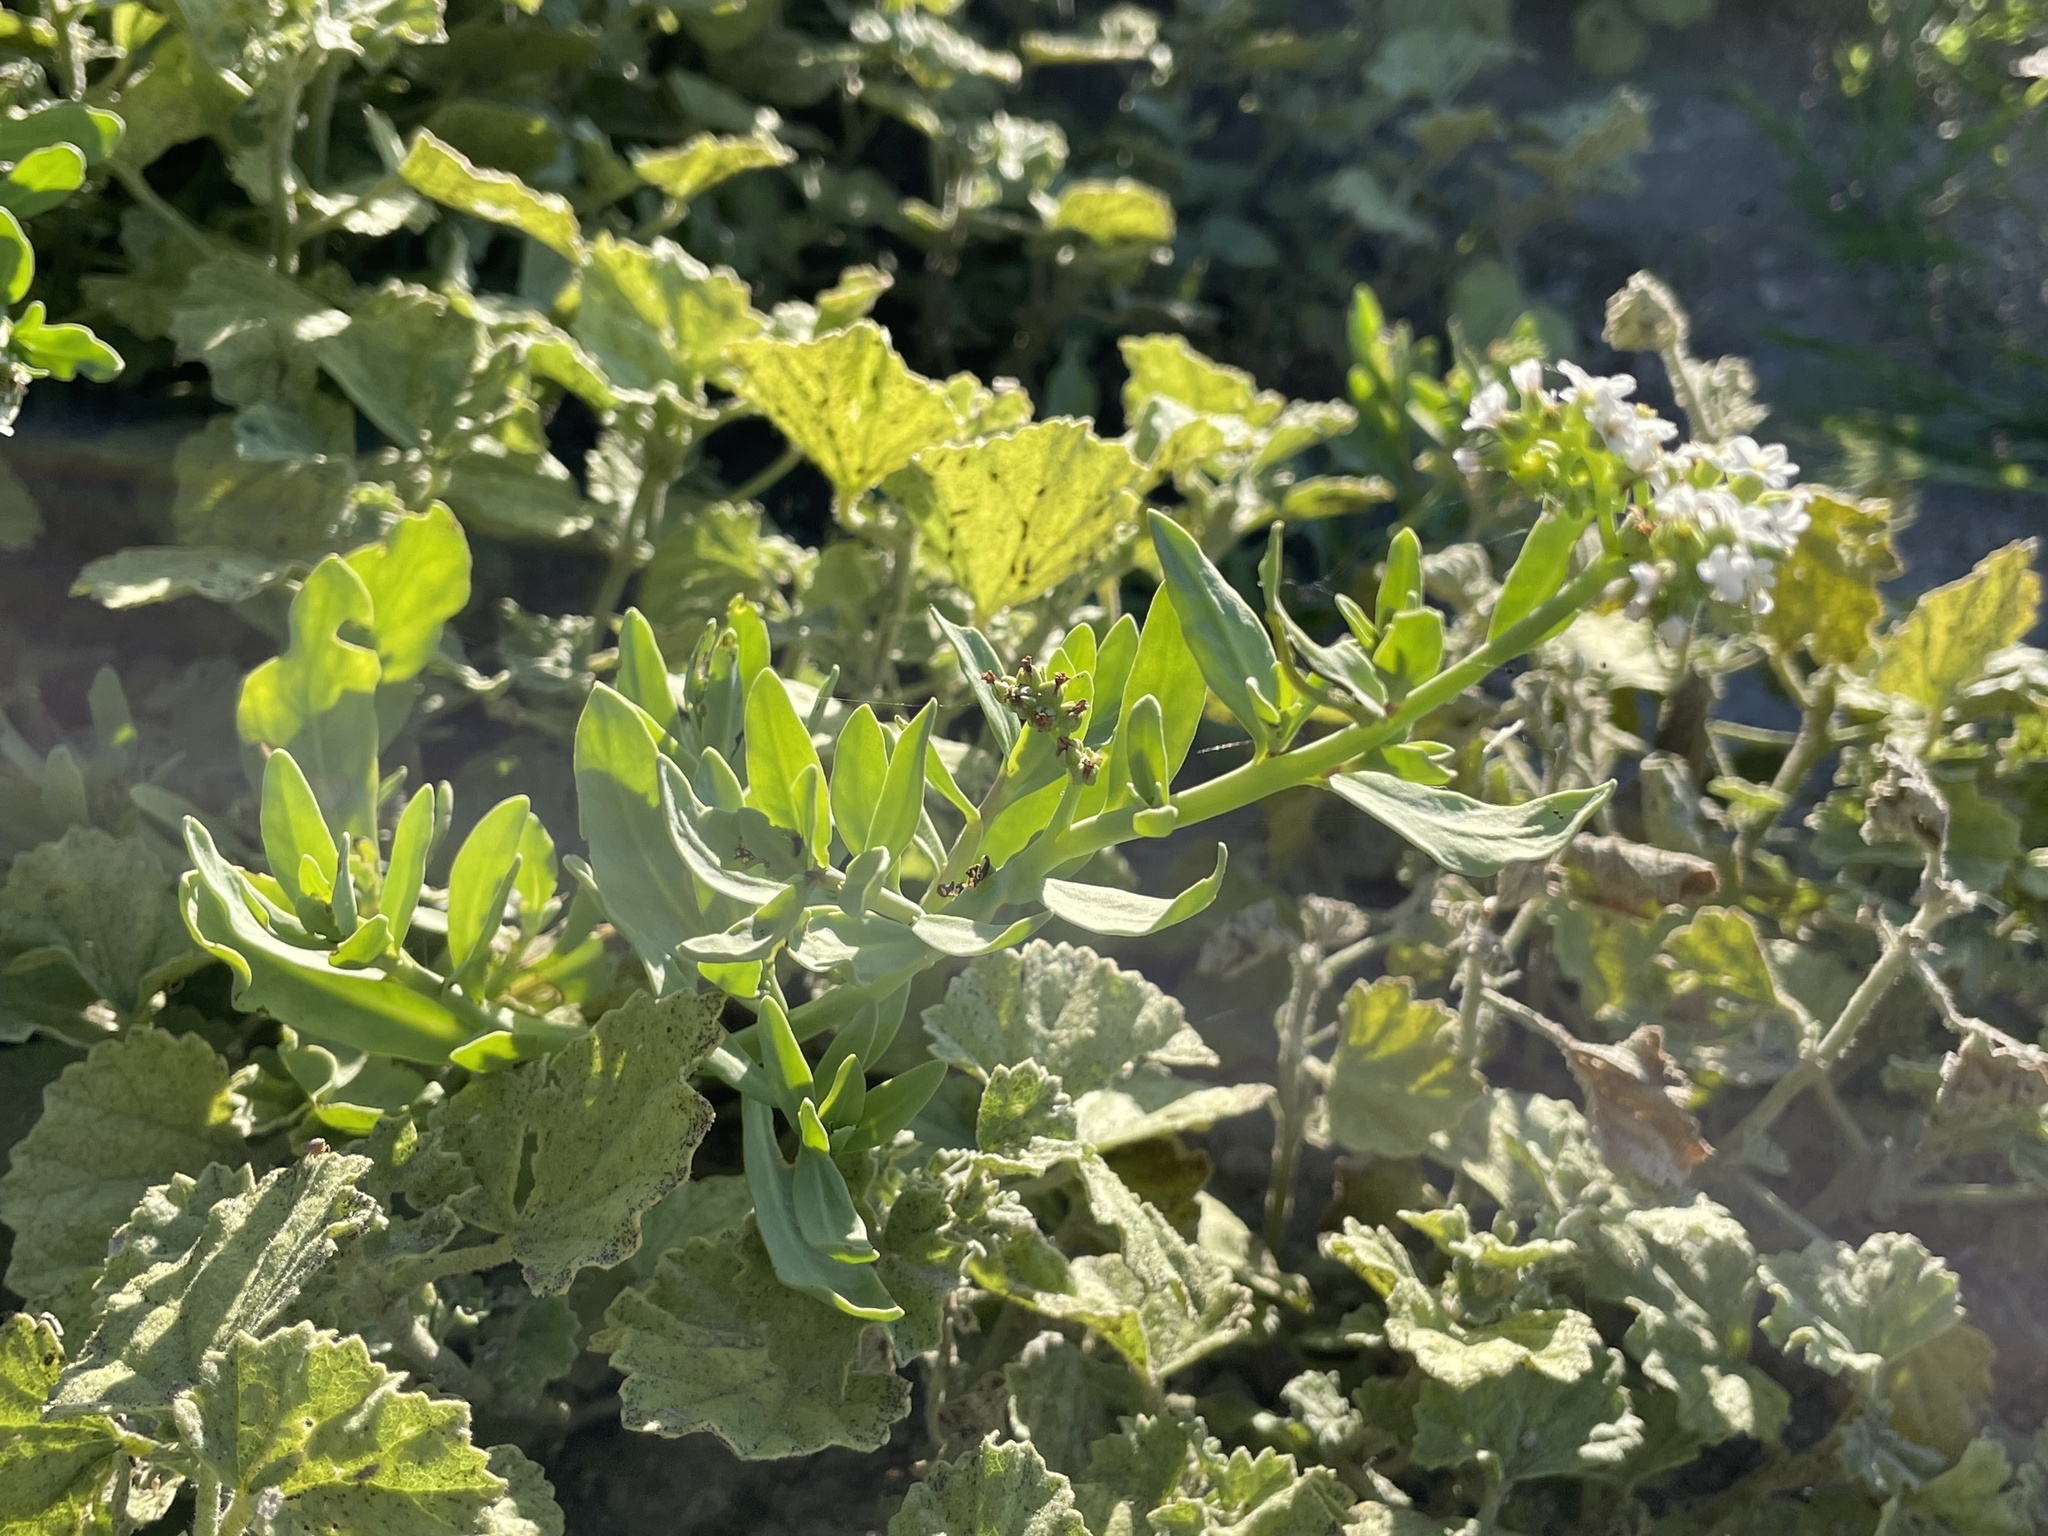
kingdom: Plantae
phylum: Tracheophyta
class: Magnoliopsida
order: Boraginales
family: Heliotropiaceae
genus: Heliotropium
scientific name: Heliotropium curassavicum
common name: Seaside heliotrope
